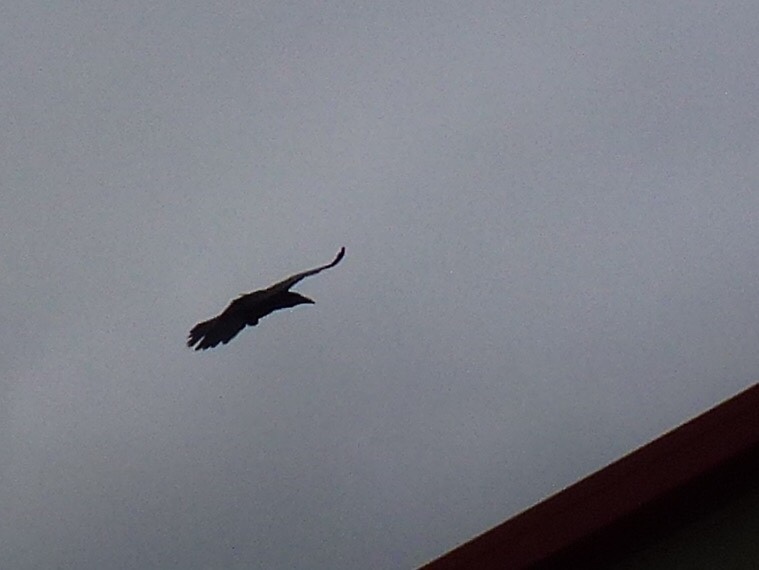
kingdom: Animalia
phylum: Chordata
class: Aves
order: Passeriformes
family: Corvidae
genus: Corvus
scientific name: Corvus corax
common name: Common raven
